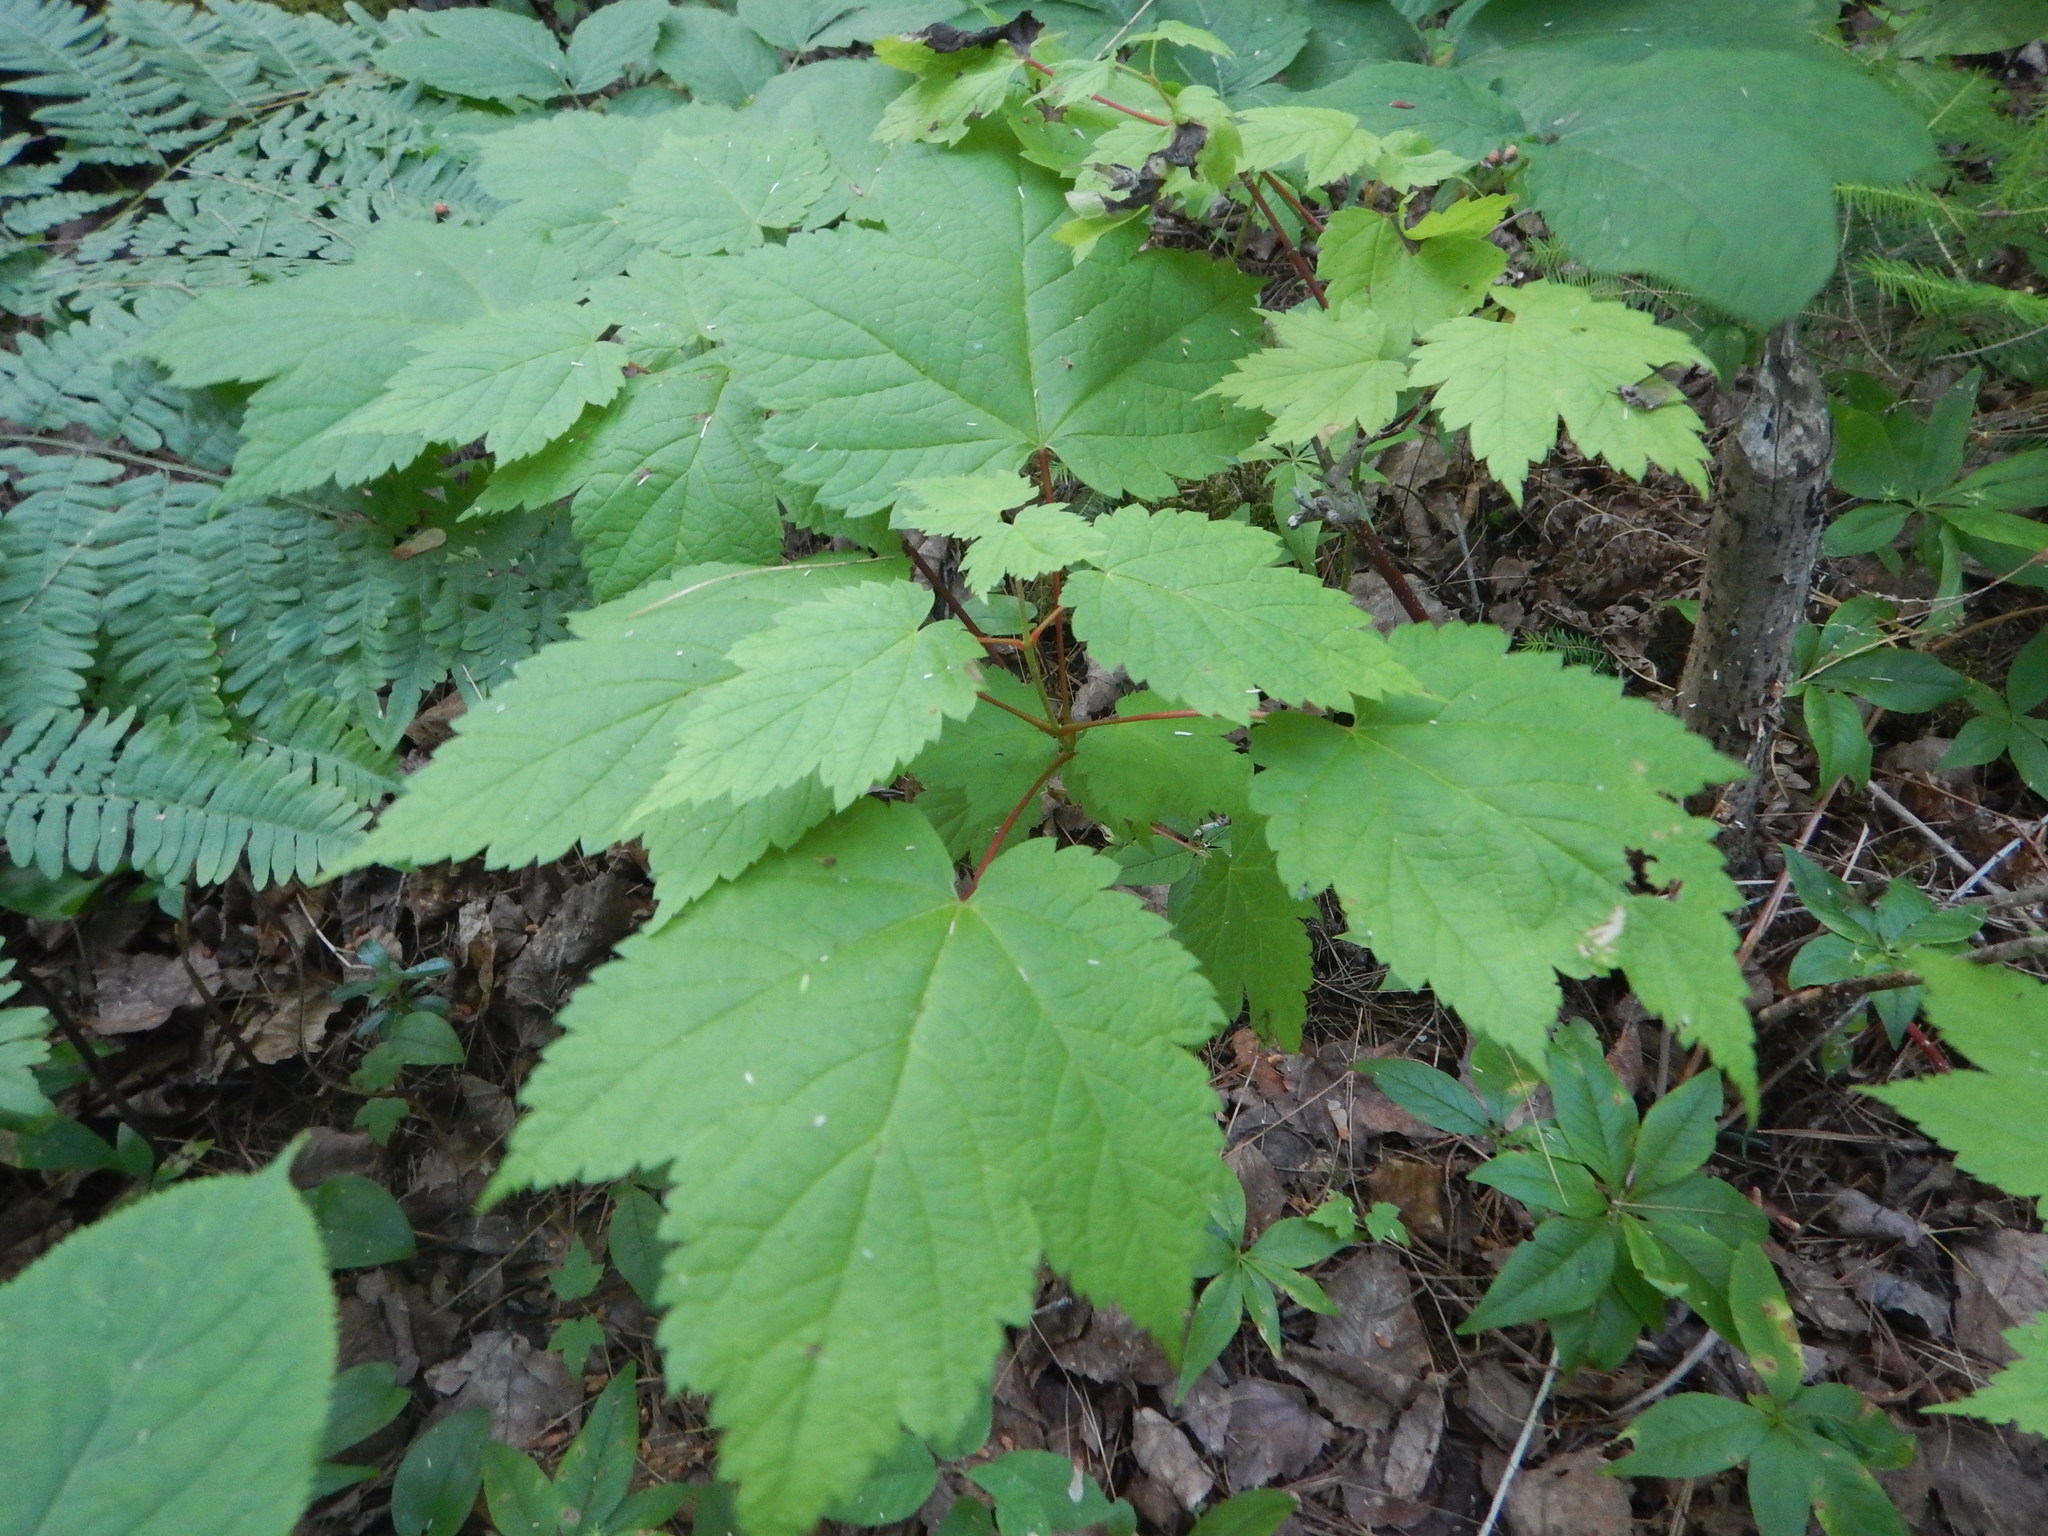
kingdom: Plantae
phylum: Tracheophyta
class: Magnoliopsida
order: Sapindales
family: Sapindaceae
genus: Acer
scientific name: Acer spicatum
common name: Mountain maple
